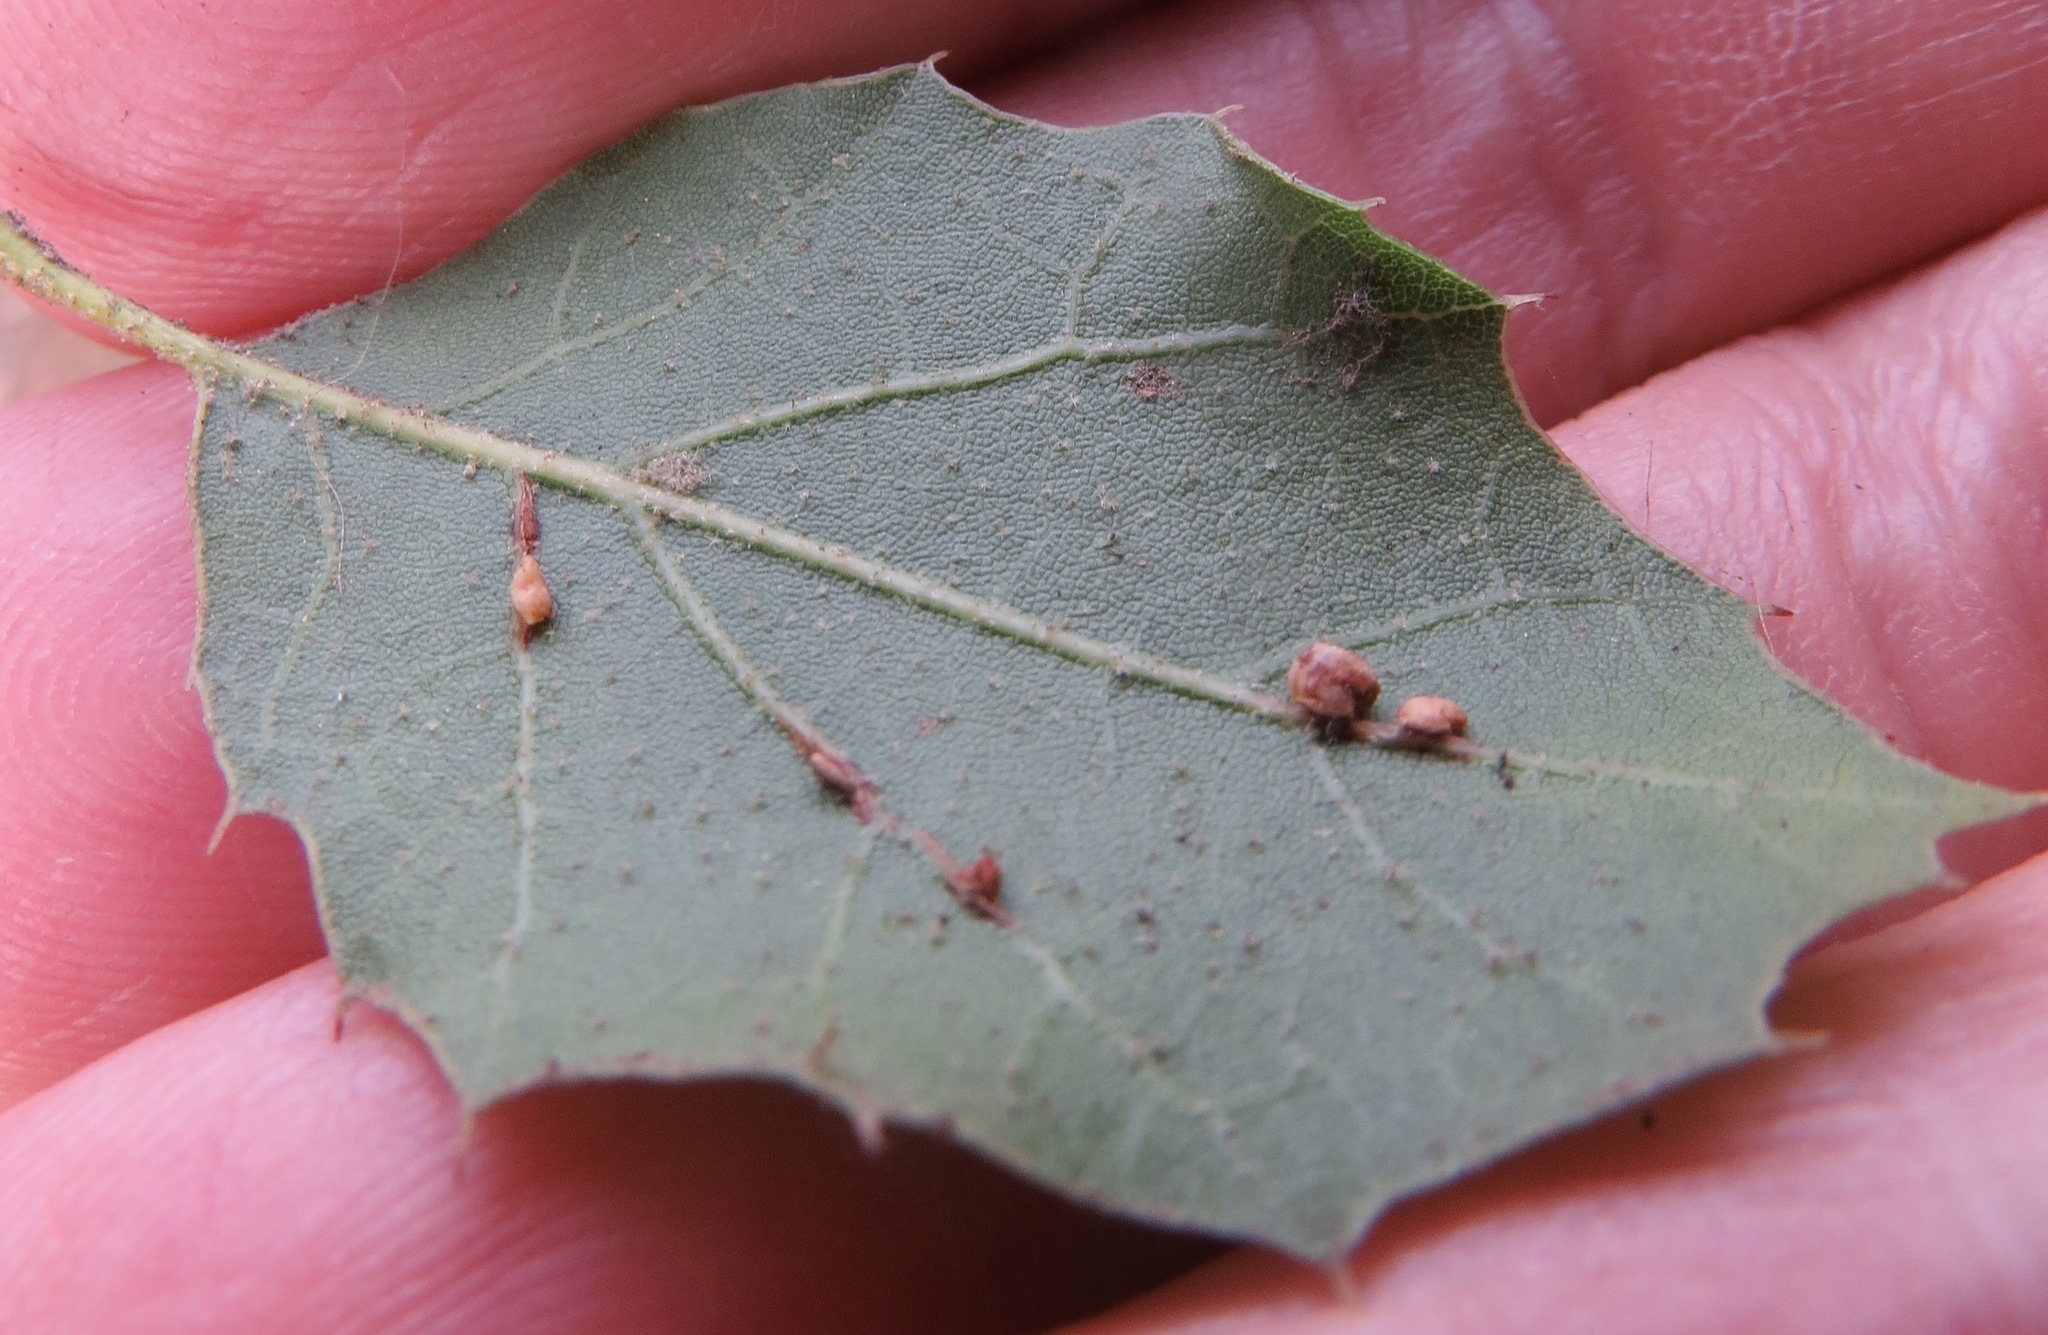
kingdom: Animalia
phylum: Arthropoda
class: Insecta
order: Hymenoptera
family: Cynipidae
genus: Dryocosmus
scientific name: Dryocosmus
